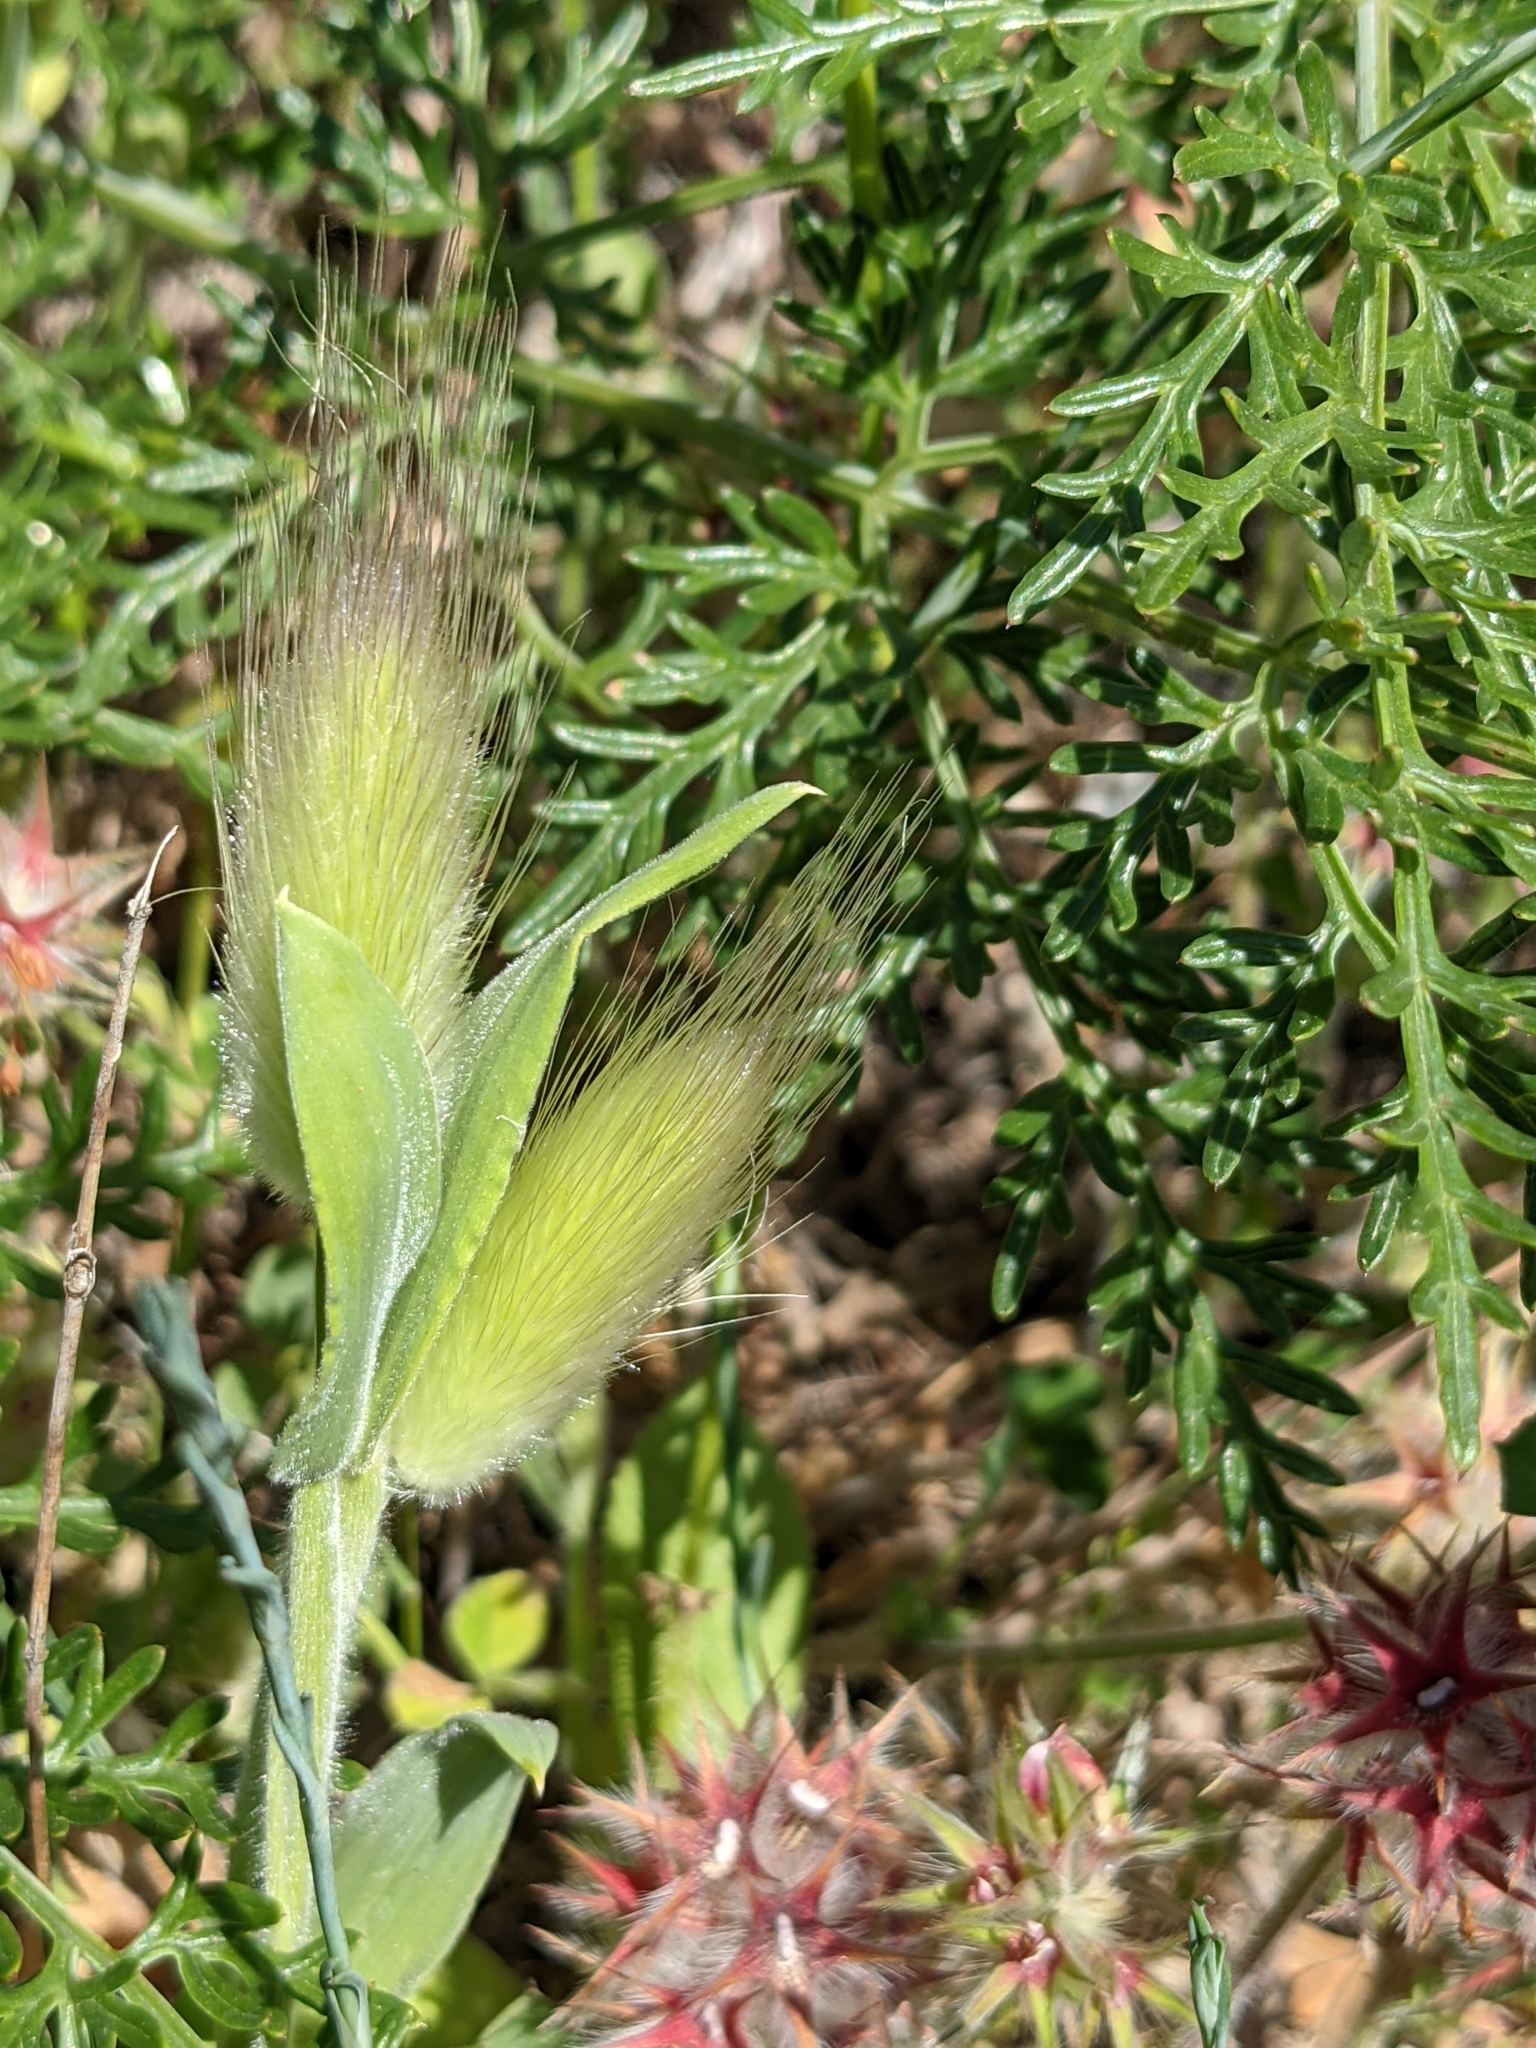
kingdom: Plantae
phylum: Tracheophyta
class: Liliopsida
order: Poales
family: Poaceae
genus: Lagurus
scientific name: Lagurus ovatus
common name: Hare's-tail
